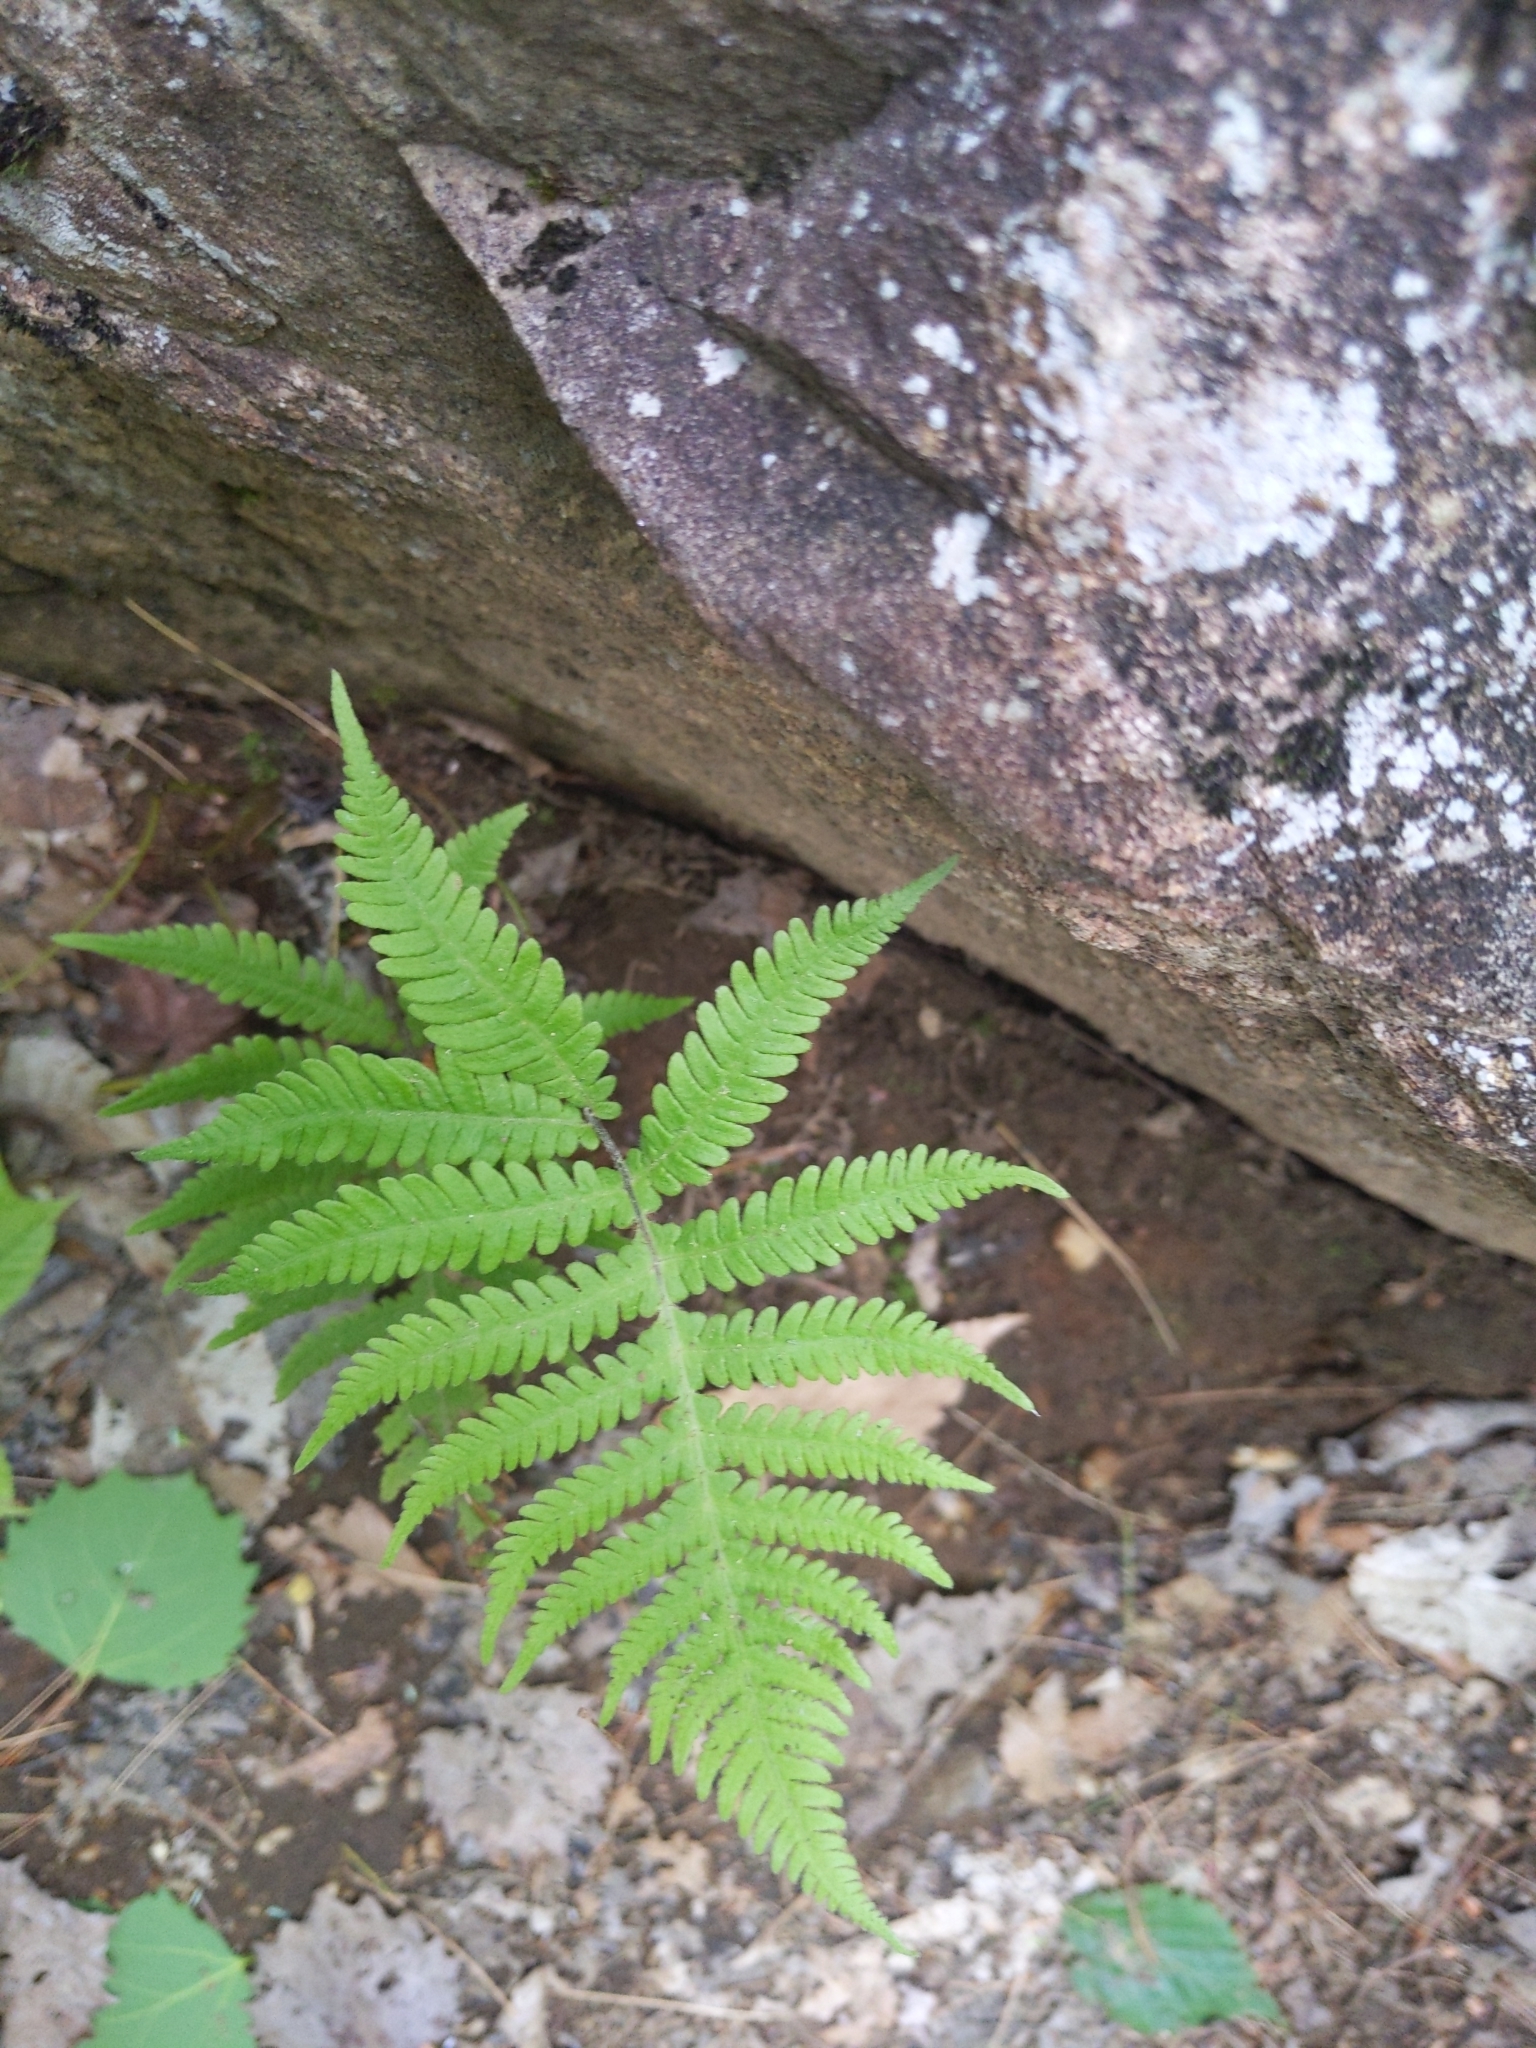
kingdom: Plantae
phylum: Tracheophyta
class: Polypodiopsida
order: Polypodiales
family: Thelypteridaceae
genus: Phegopteris
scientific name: Phegopteris connectilis
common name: Beech fern
